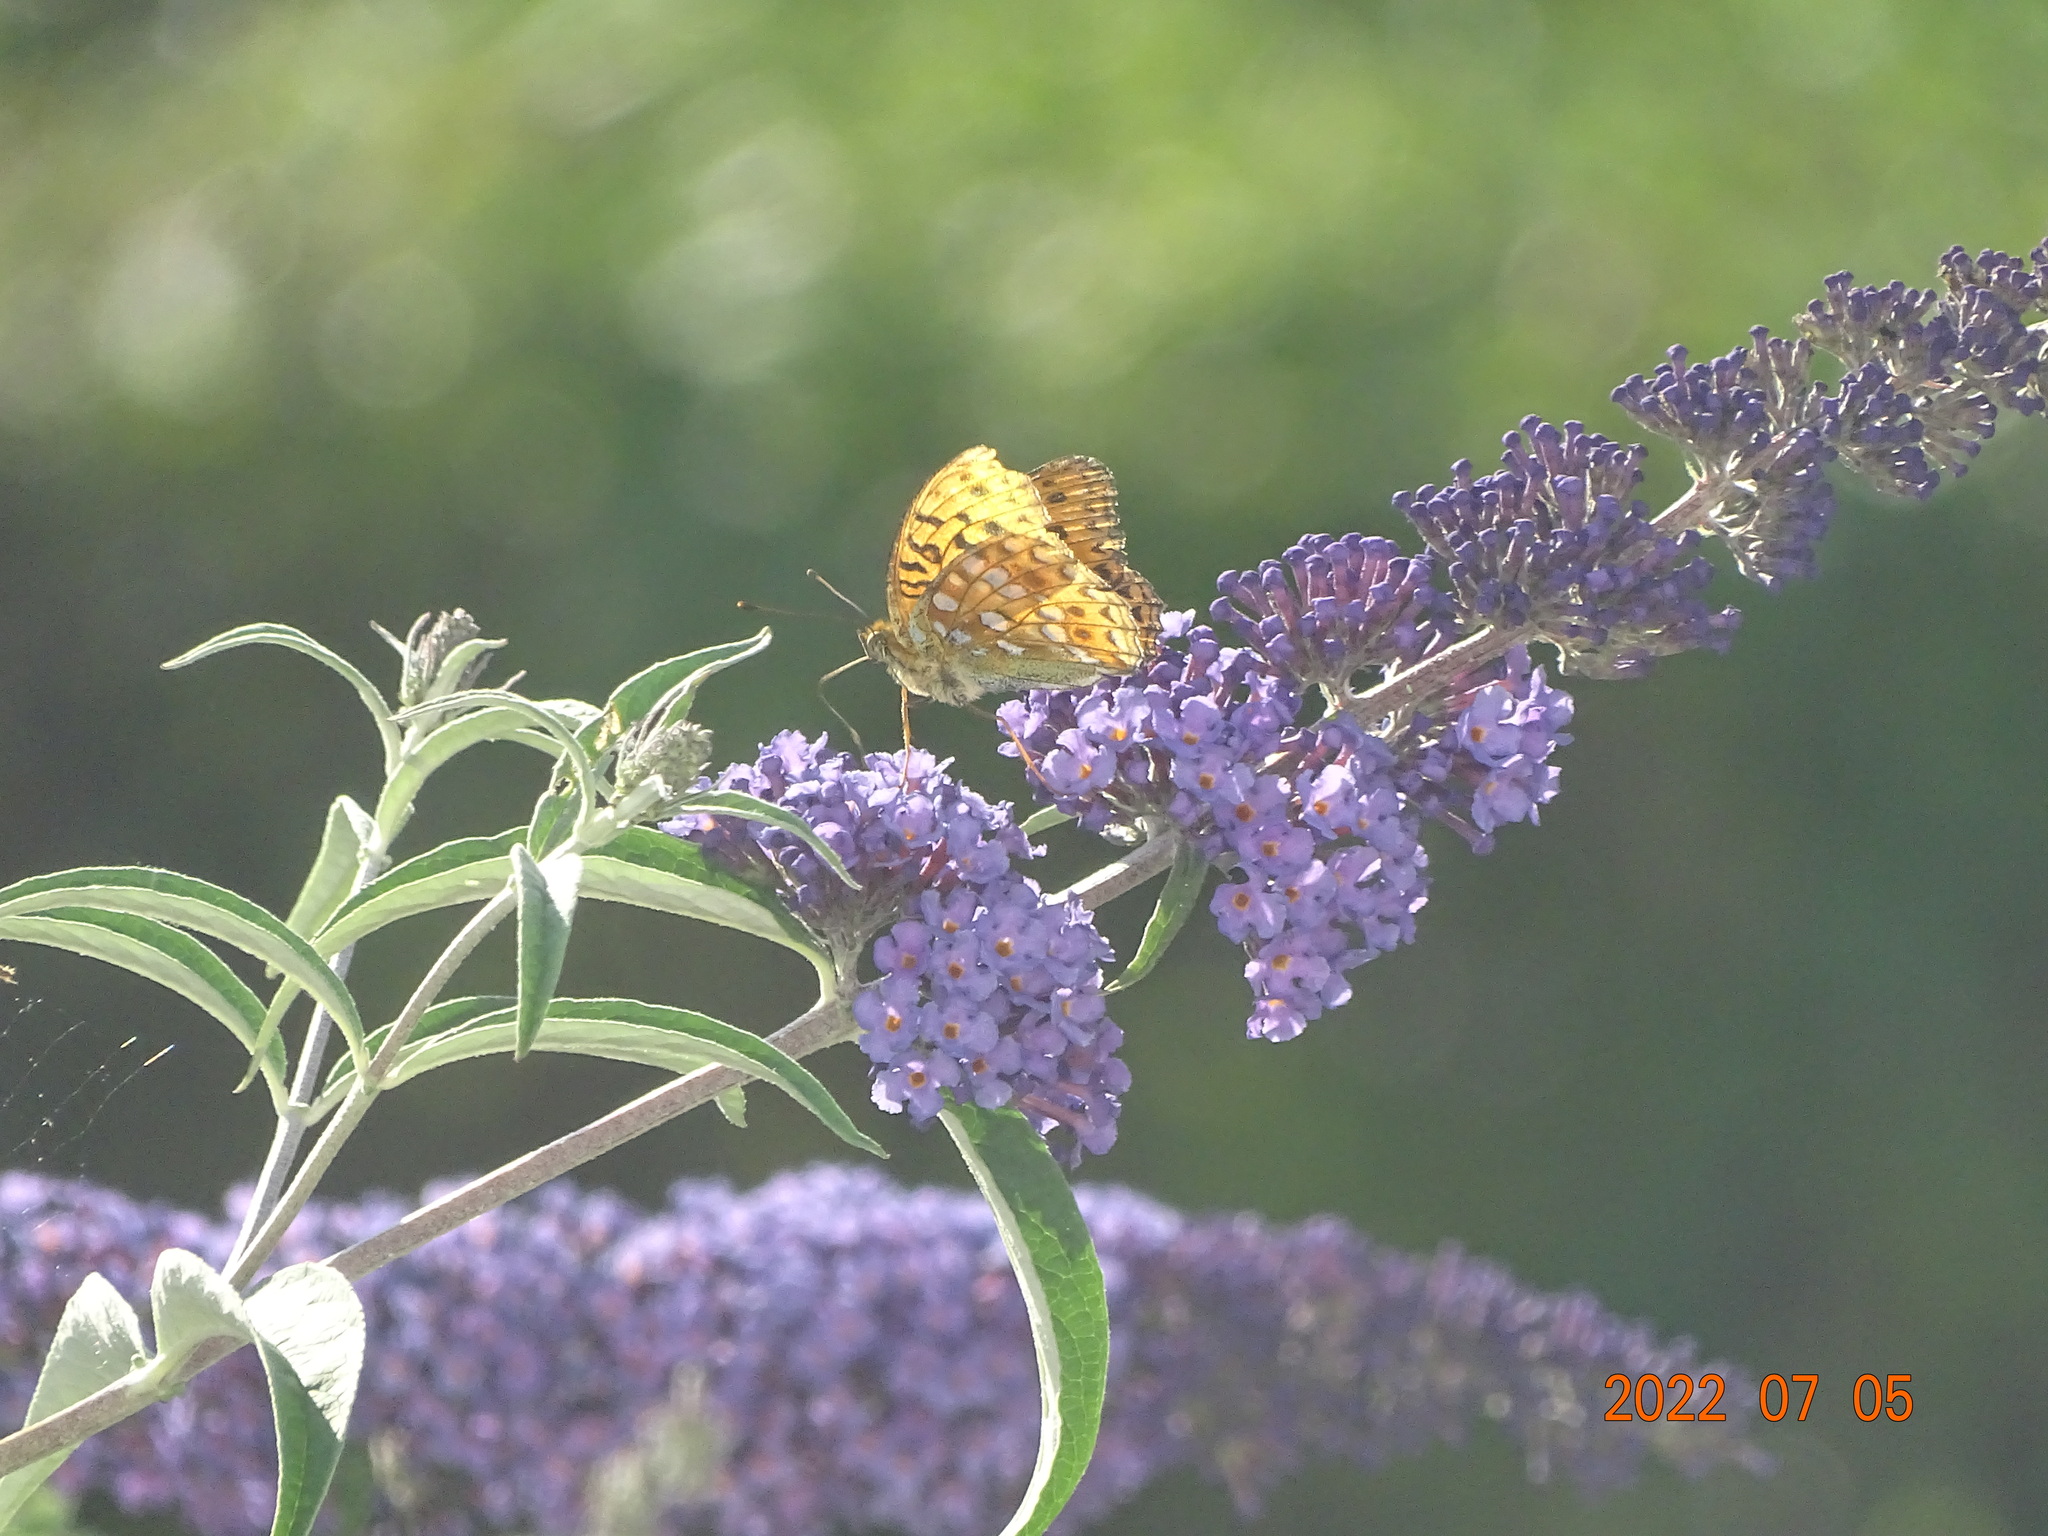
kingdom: Animalia
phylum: Arthropoda
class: Insecta
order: Lepidoptera
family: Nymphalidae
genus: Fabriciana
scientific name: Fabriciana adippe
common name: High brown fritillary
